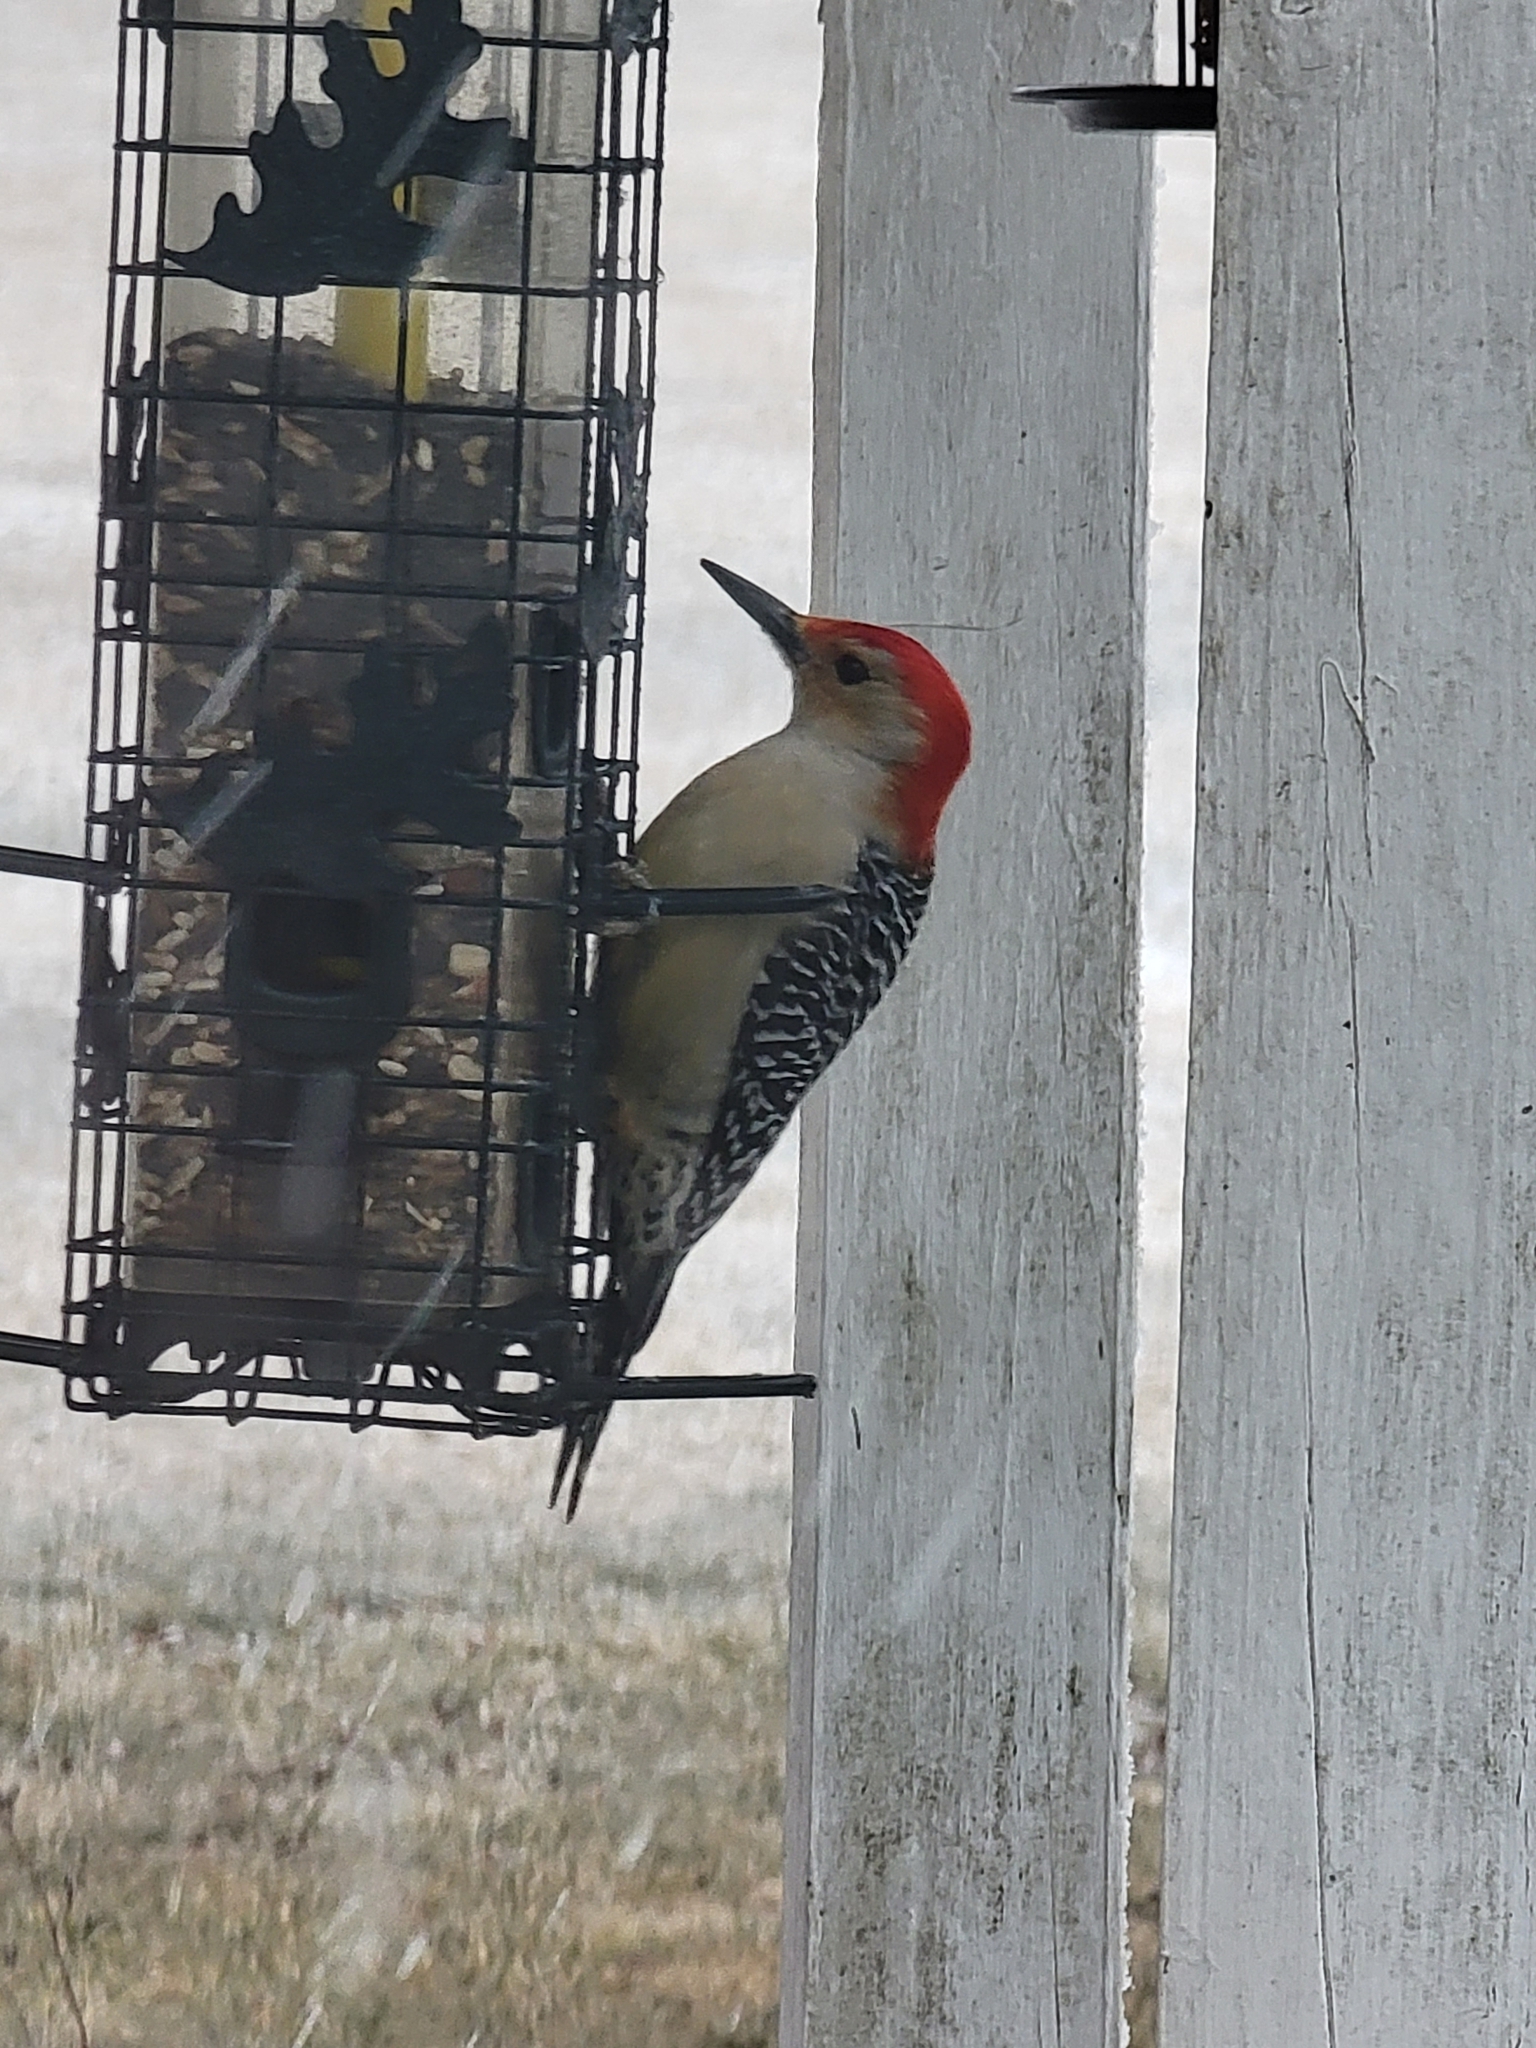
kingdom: Animalia
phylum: Chordata
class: Aves
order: Piciformes
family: Picidae
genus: Melanerpes
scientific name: Melanerpes carolinus
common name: Red-bellied woodpecker
